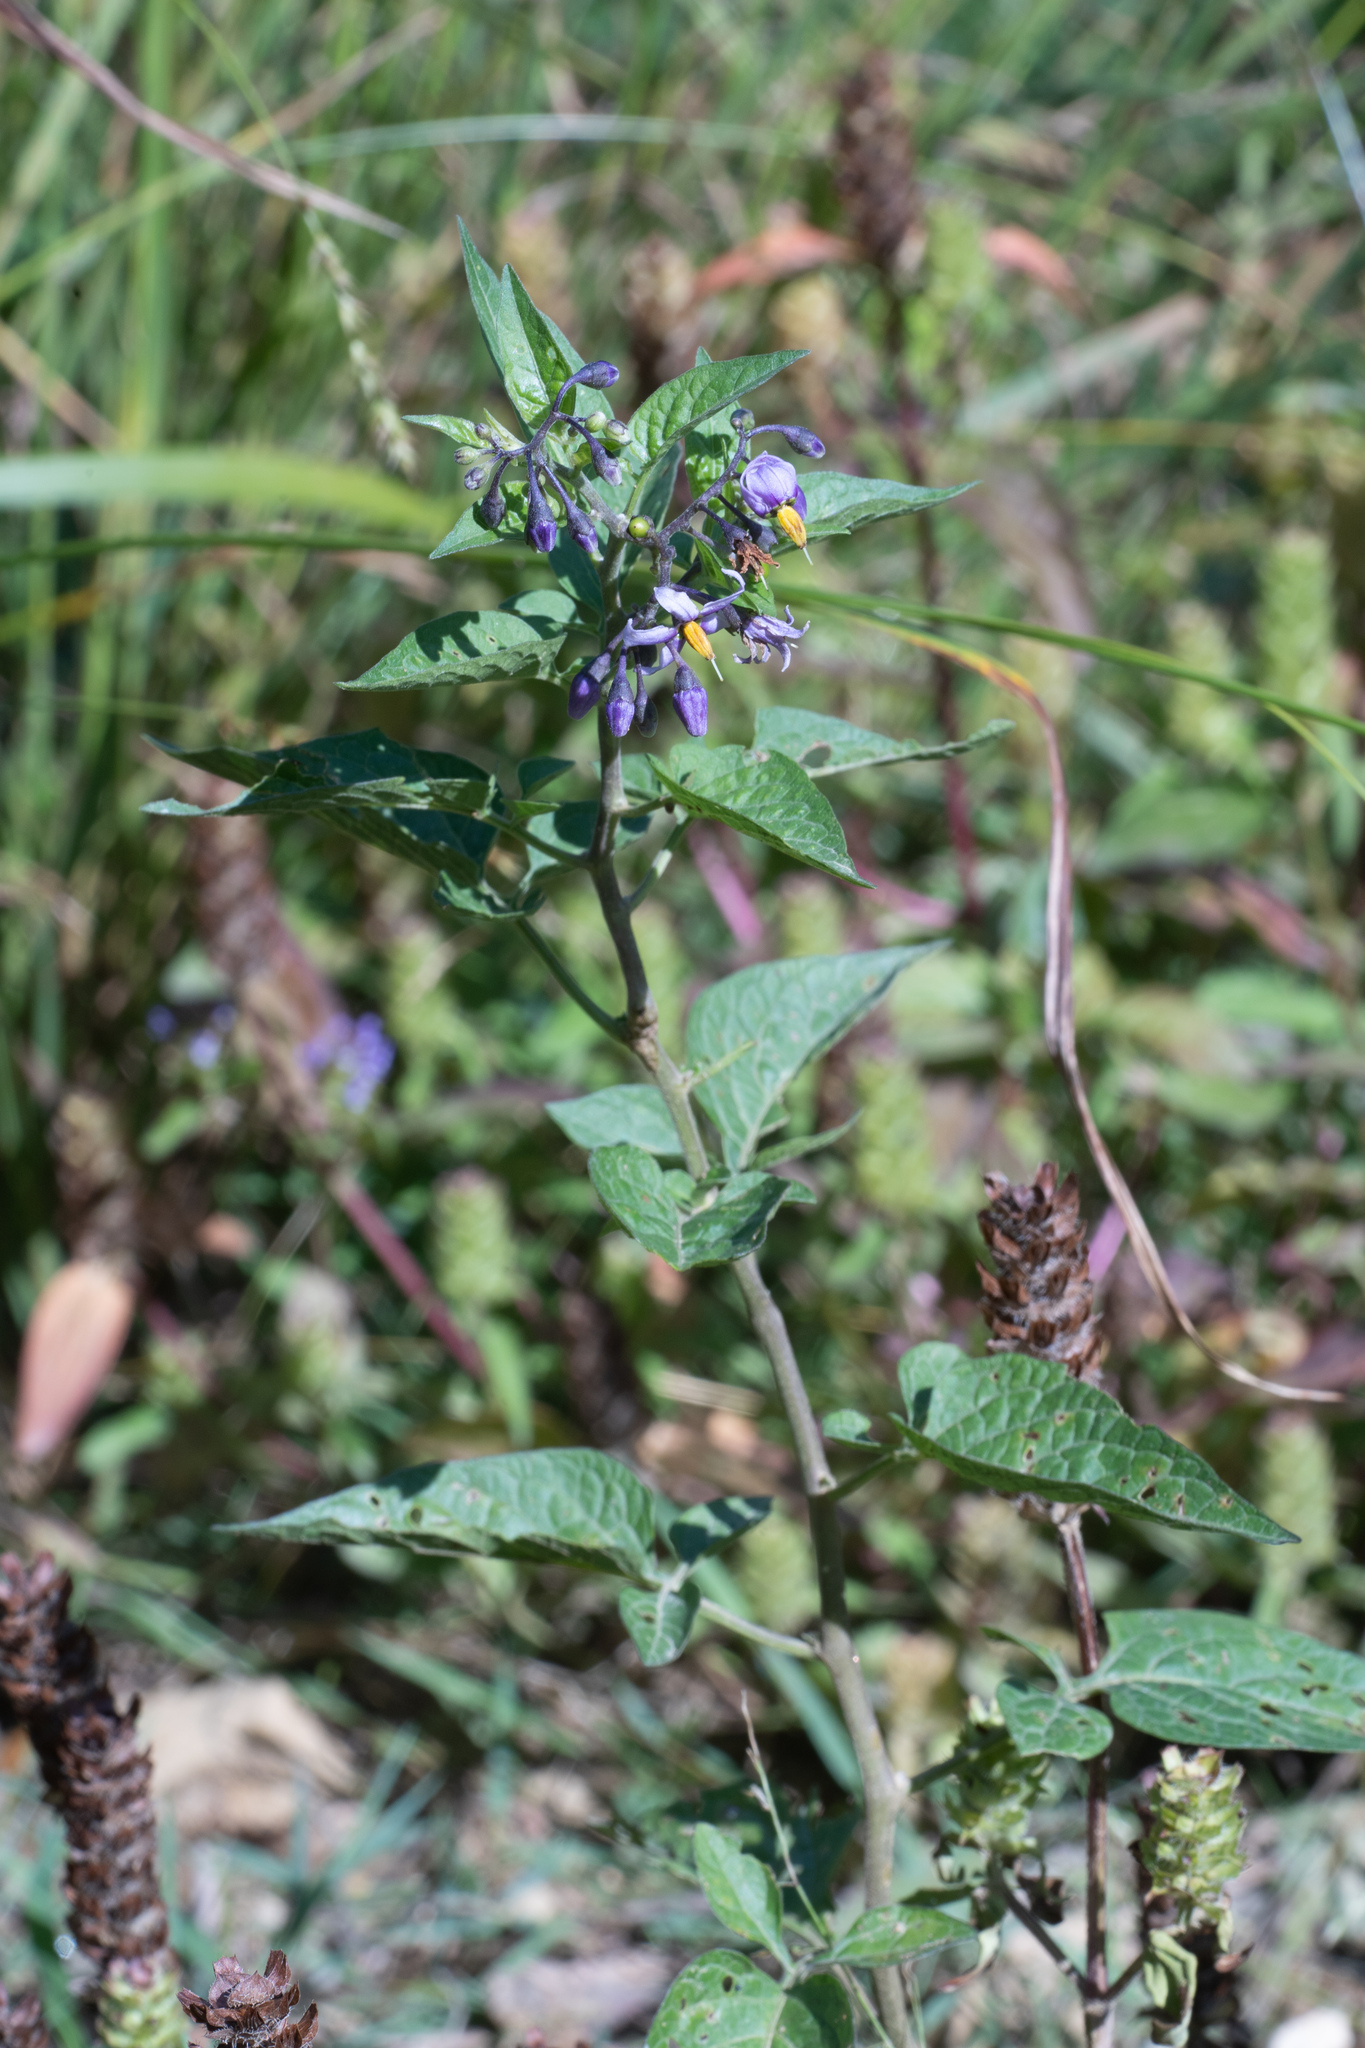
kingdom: Plantae
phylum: Tracheophyta
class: Magnoliopsida
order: Solanales
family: Solanaceae
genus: Solanum
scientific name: Solanum dulcamara
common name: Climbing nightshade
